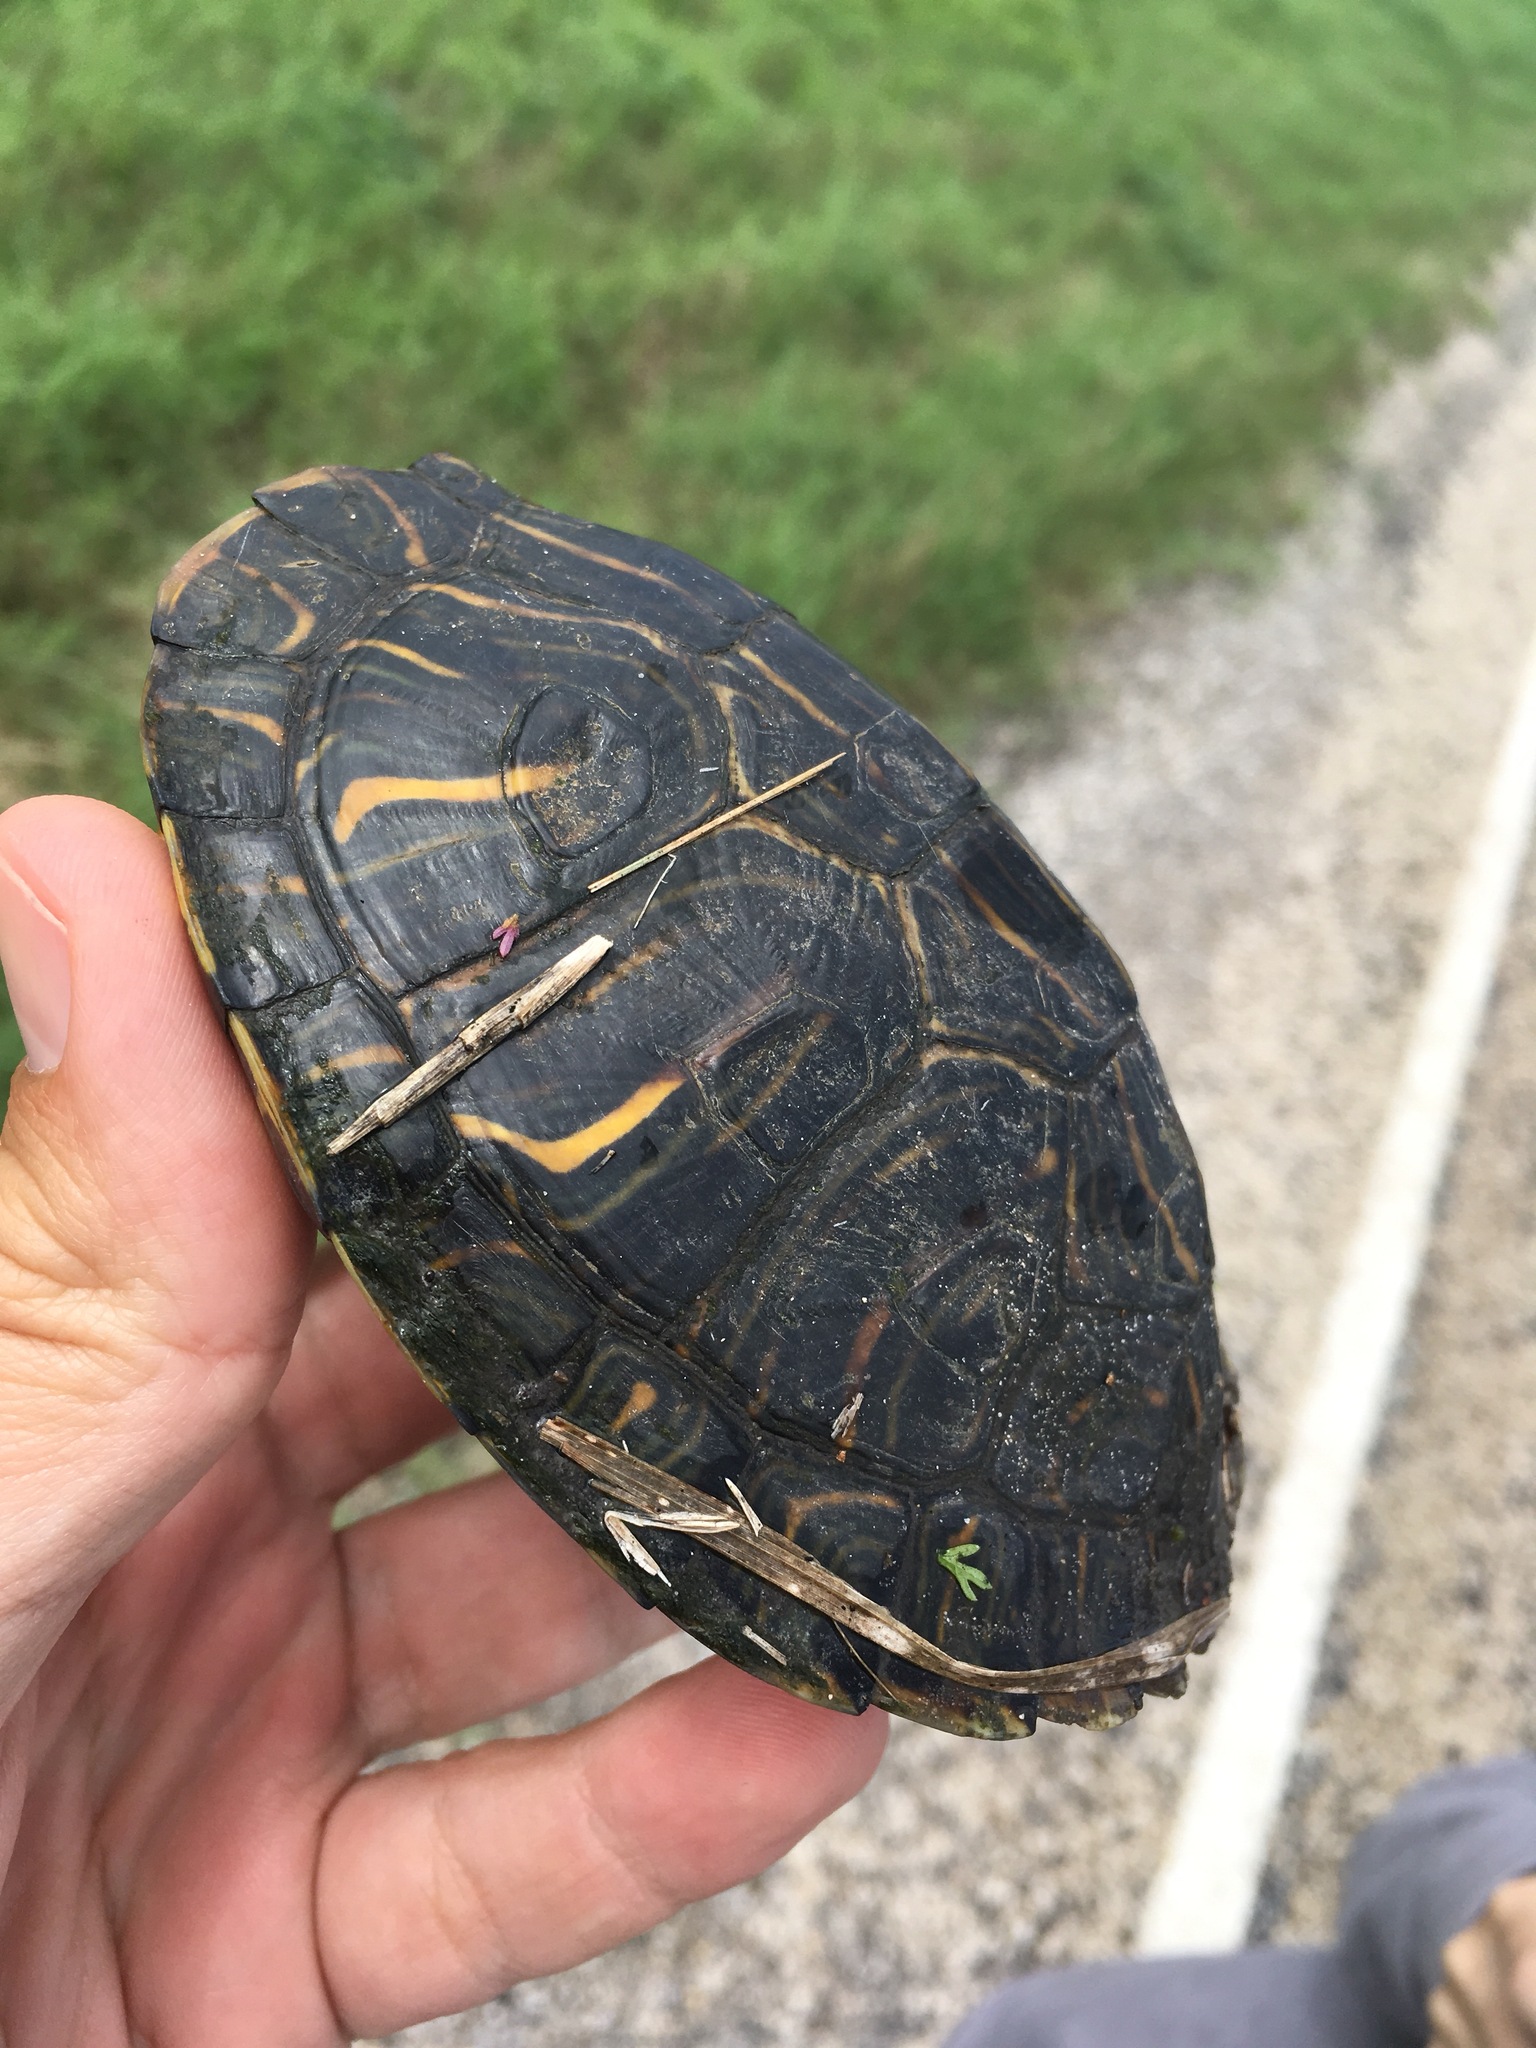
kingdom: Animalia
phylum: Chordata
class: Testudines
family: Emydidae
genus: Trachemys
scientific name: Trachemys scripta
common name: Slider
